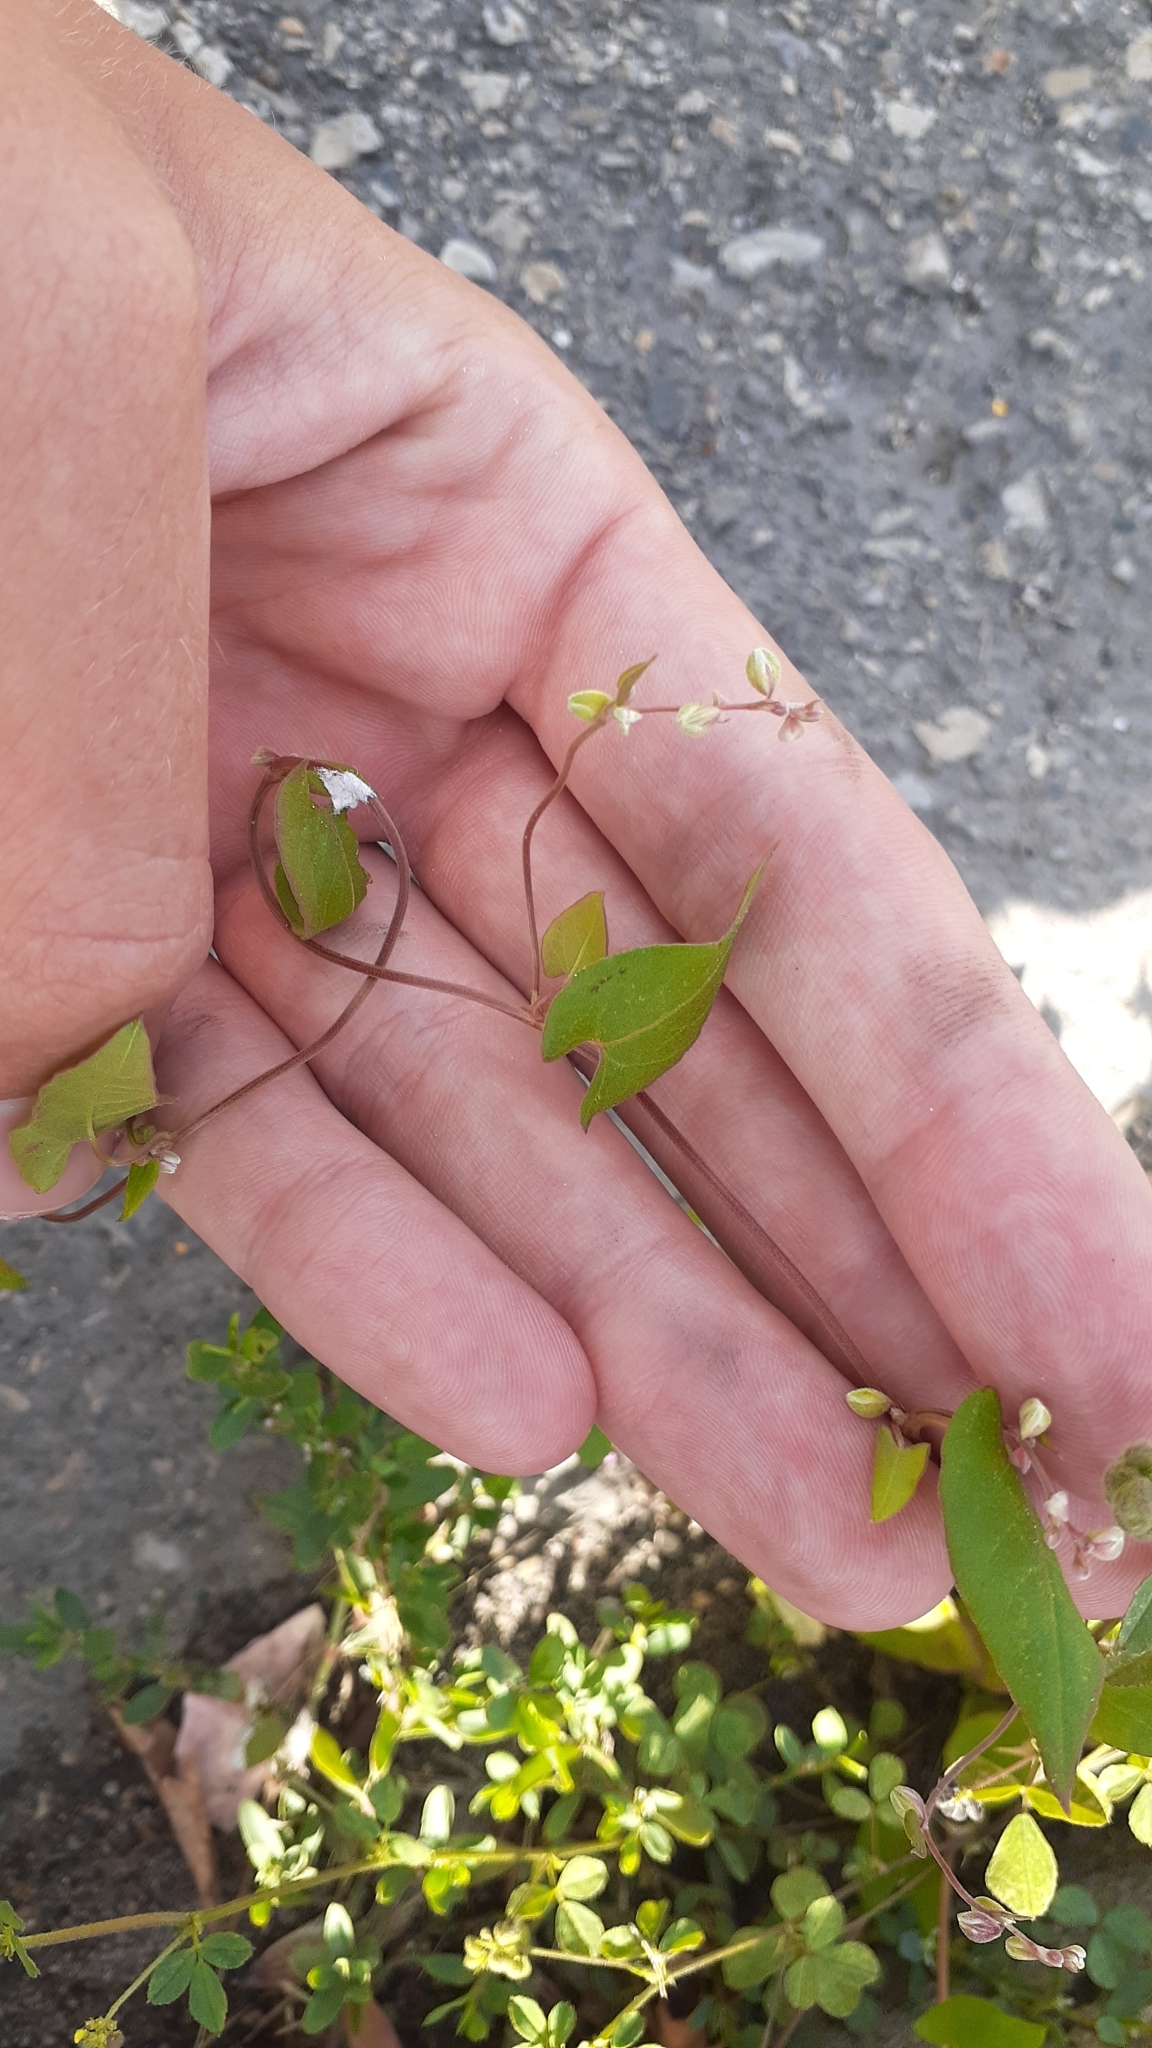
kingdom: Plantae
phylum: Tracheophyta
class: Magnoliopsida
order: Caryophyllales
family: Polygonaceae
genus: Fallopia
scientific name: Fallopia convolvulus
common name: Black bindweed
